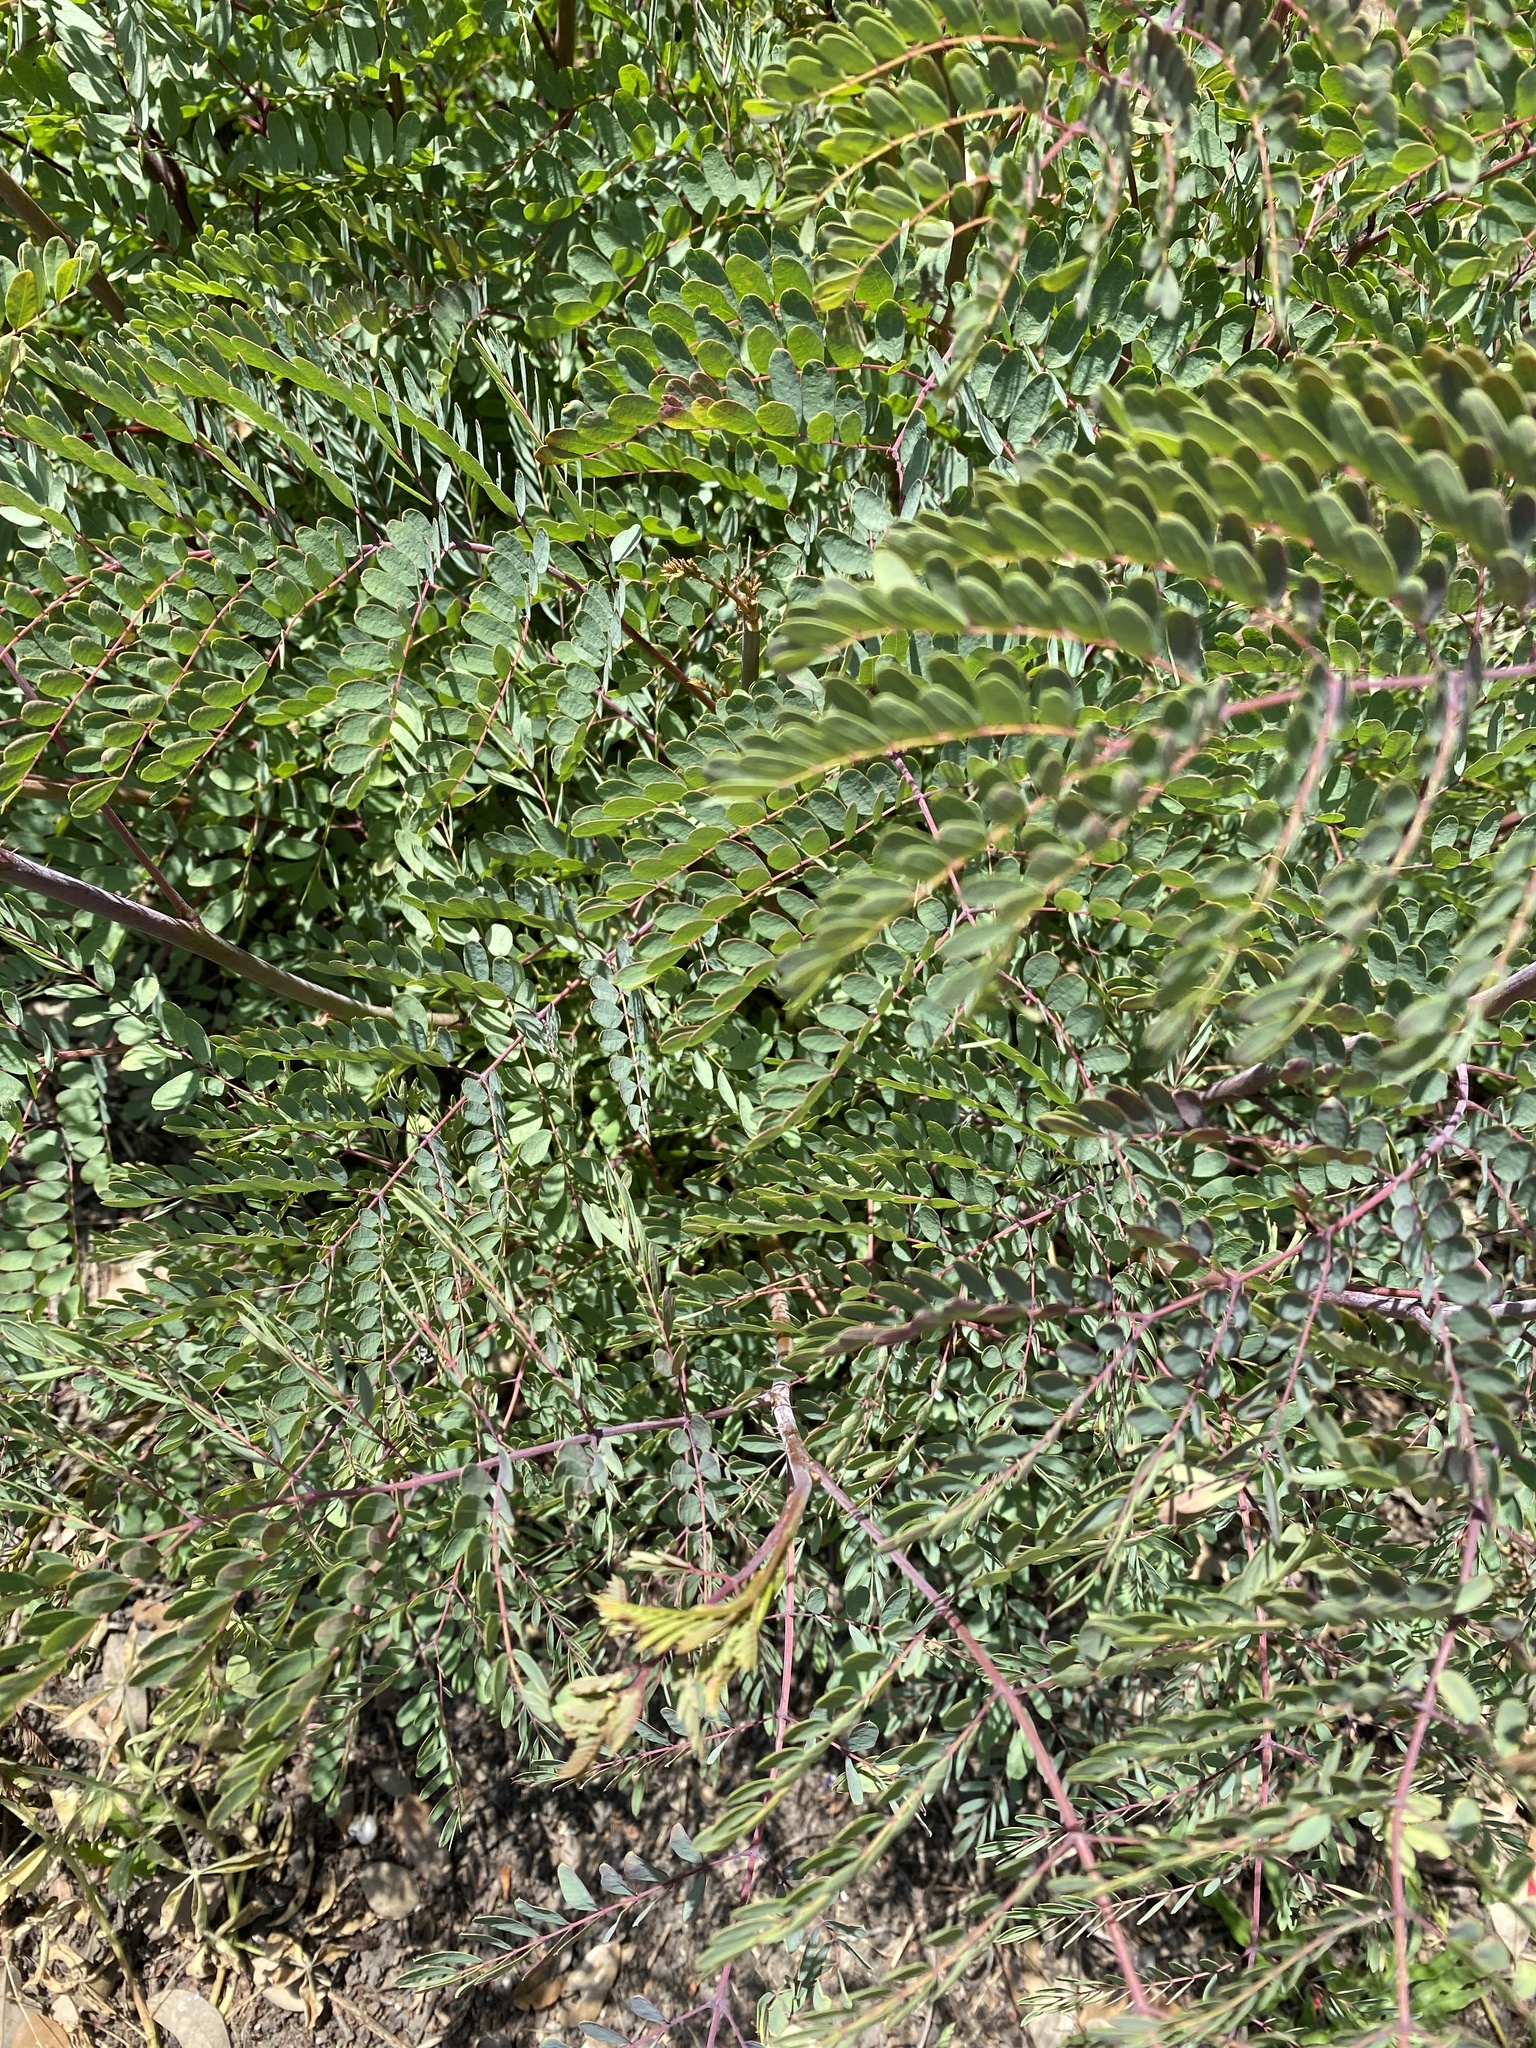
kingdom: Plantae
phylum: Tracheophyta
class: Magnoliopsida
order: Fabales
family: Fabaceae
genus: Erythrostemon
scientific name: Erythrostemon gilliesii
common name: Bird-of-paradise shrub
